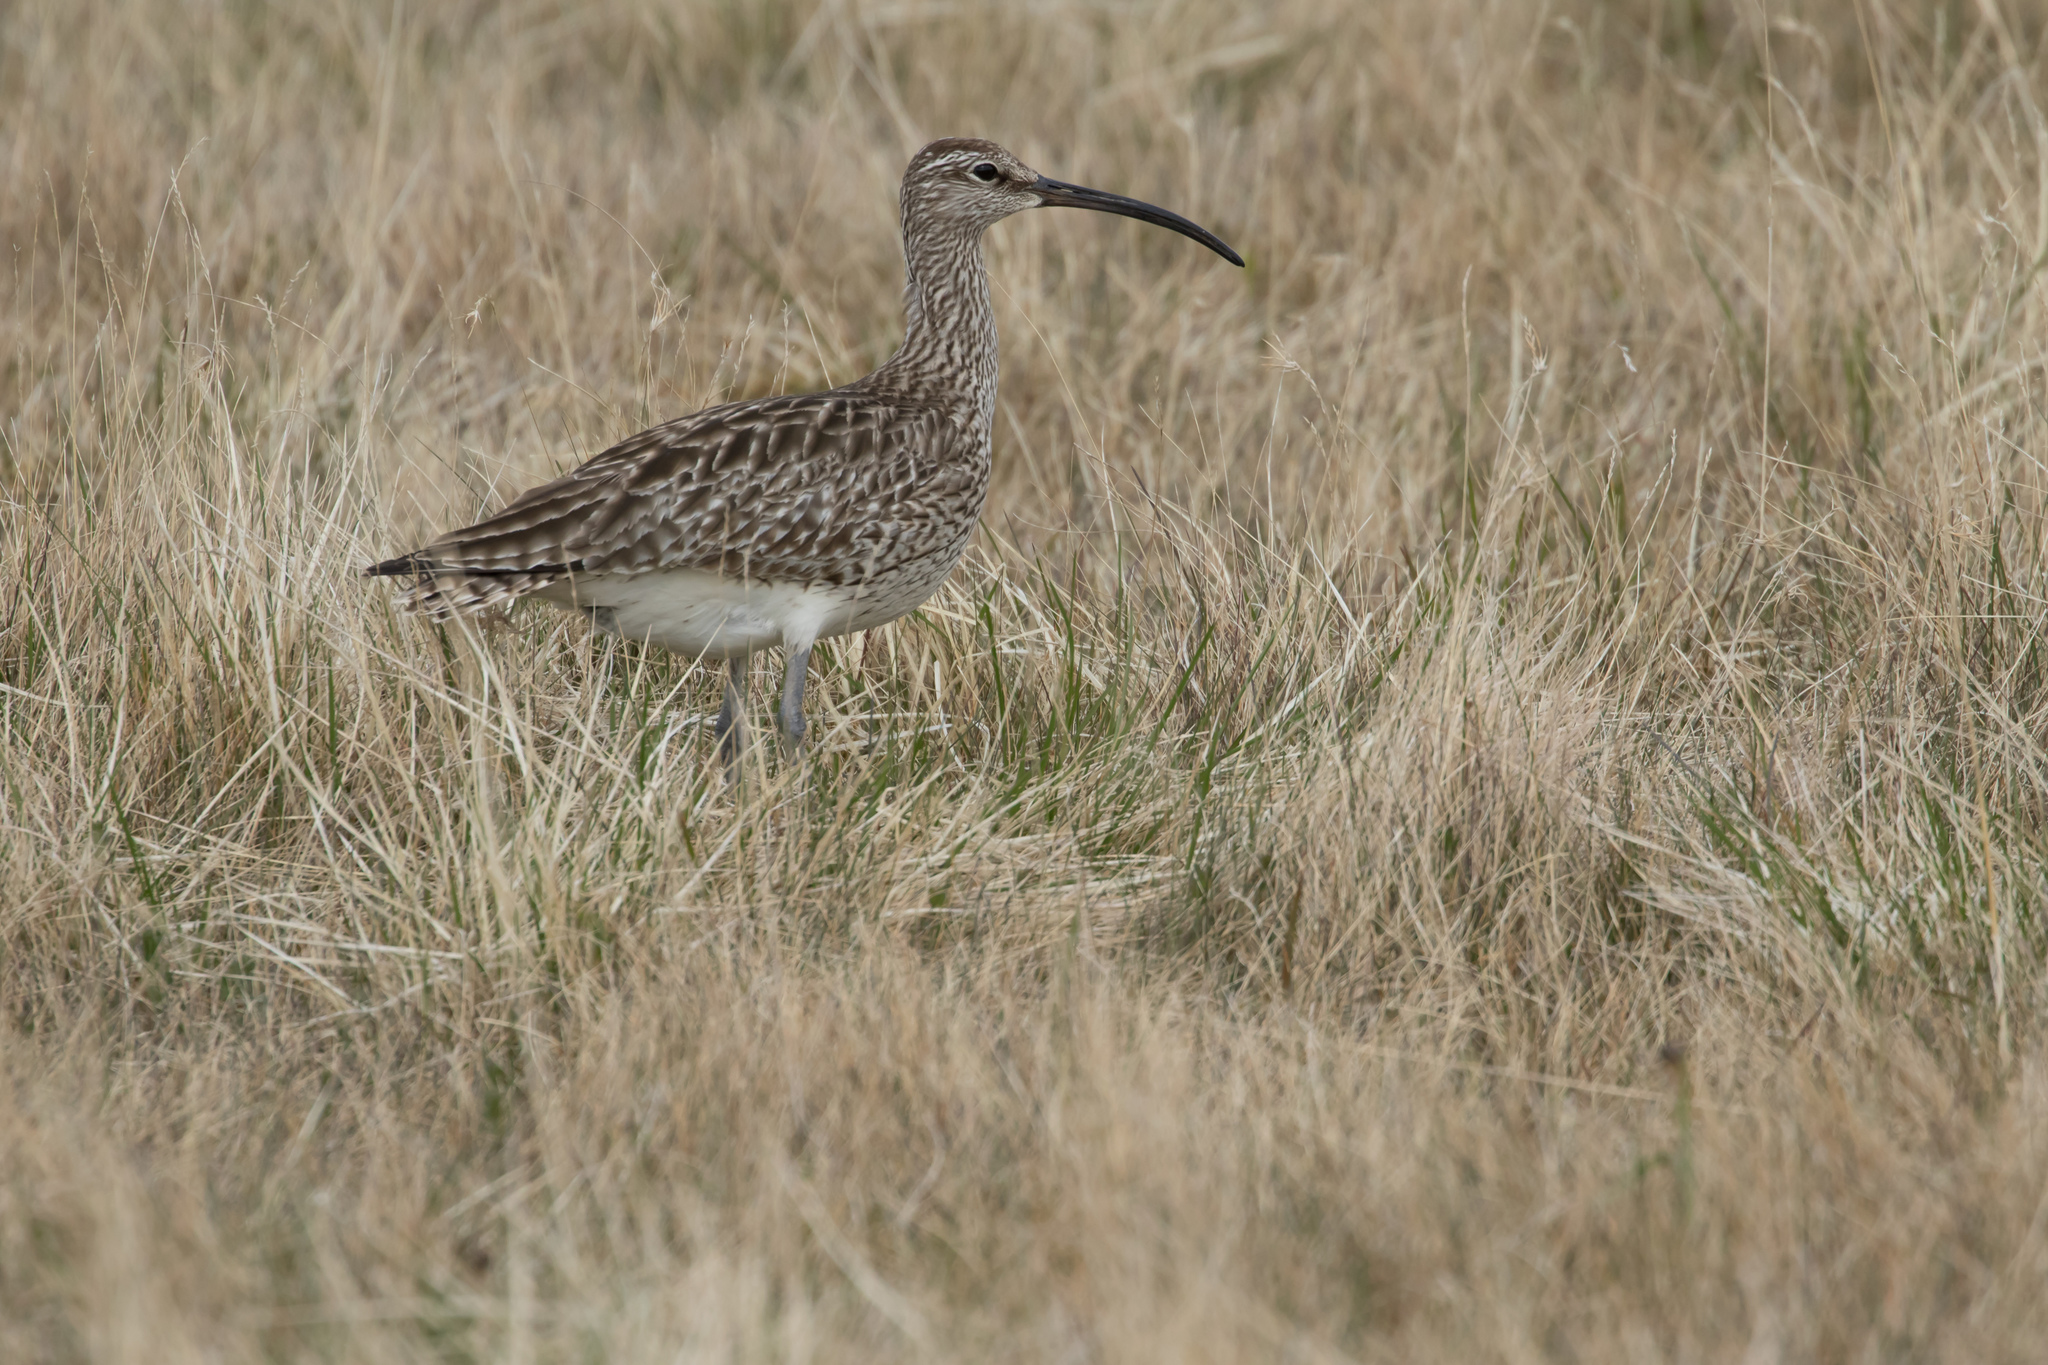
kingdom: Animalia
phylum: Chordata
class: Aves
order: Charadriiformes
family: Scolopacidae
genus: Numenius
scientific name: Numenius phaeopus
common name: Whimbrel
